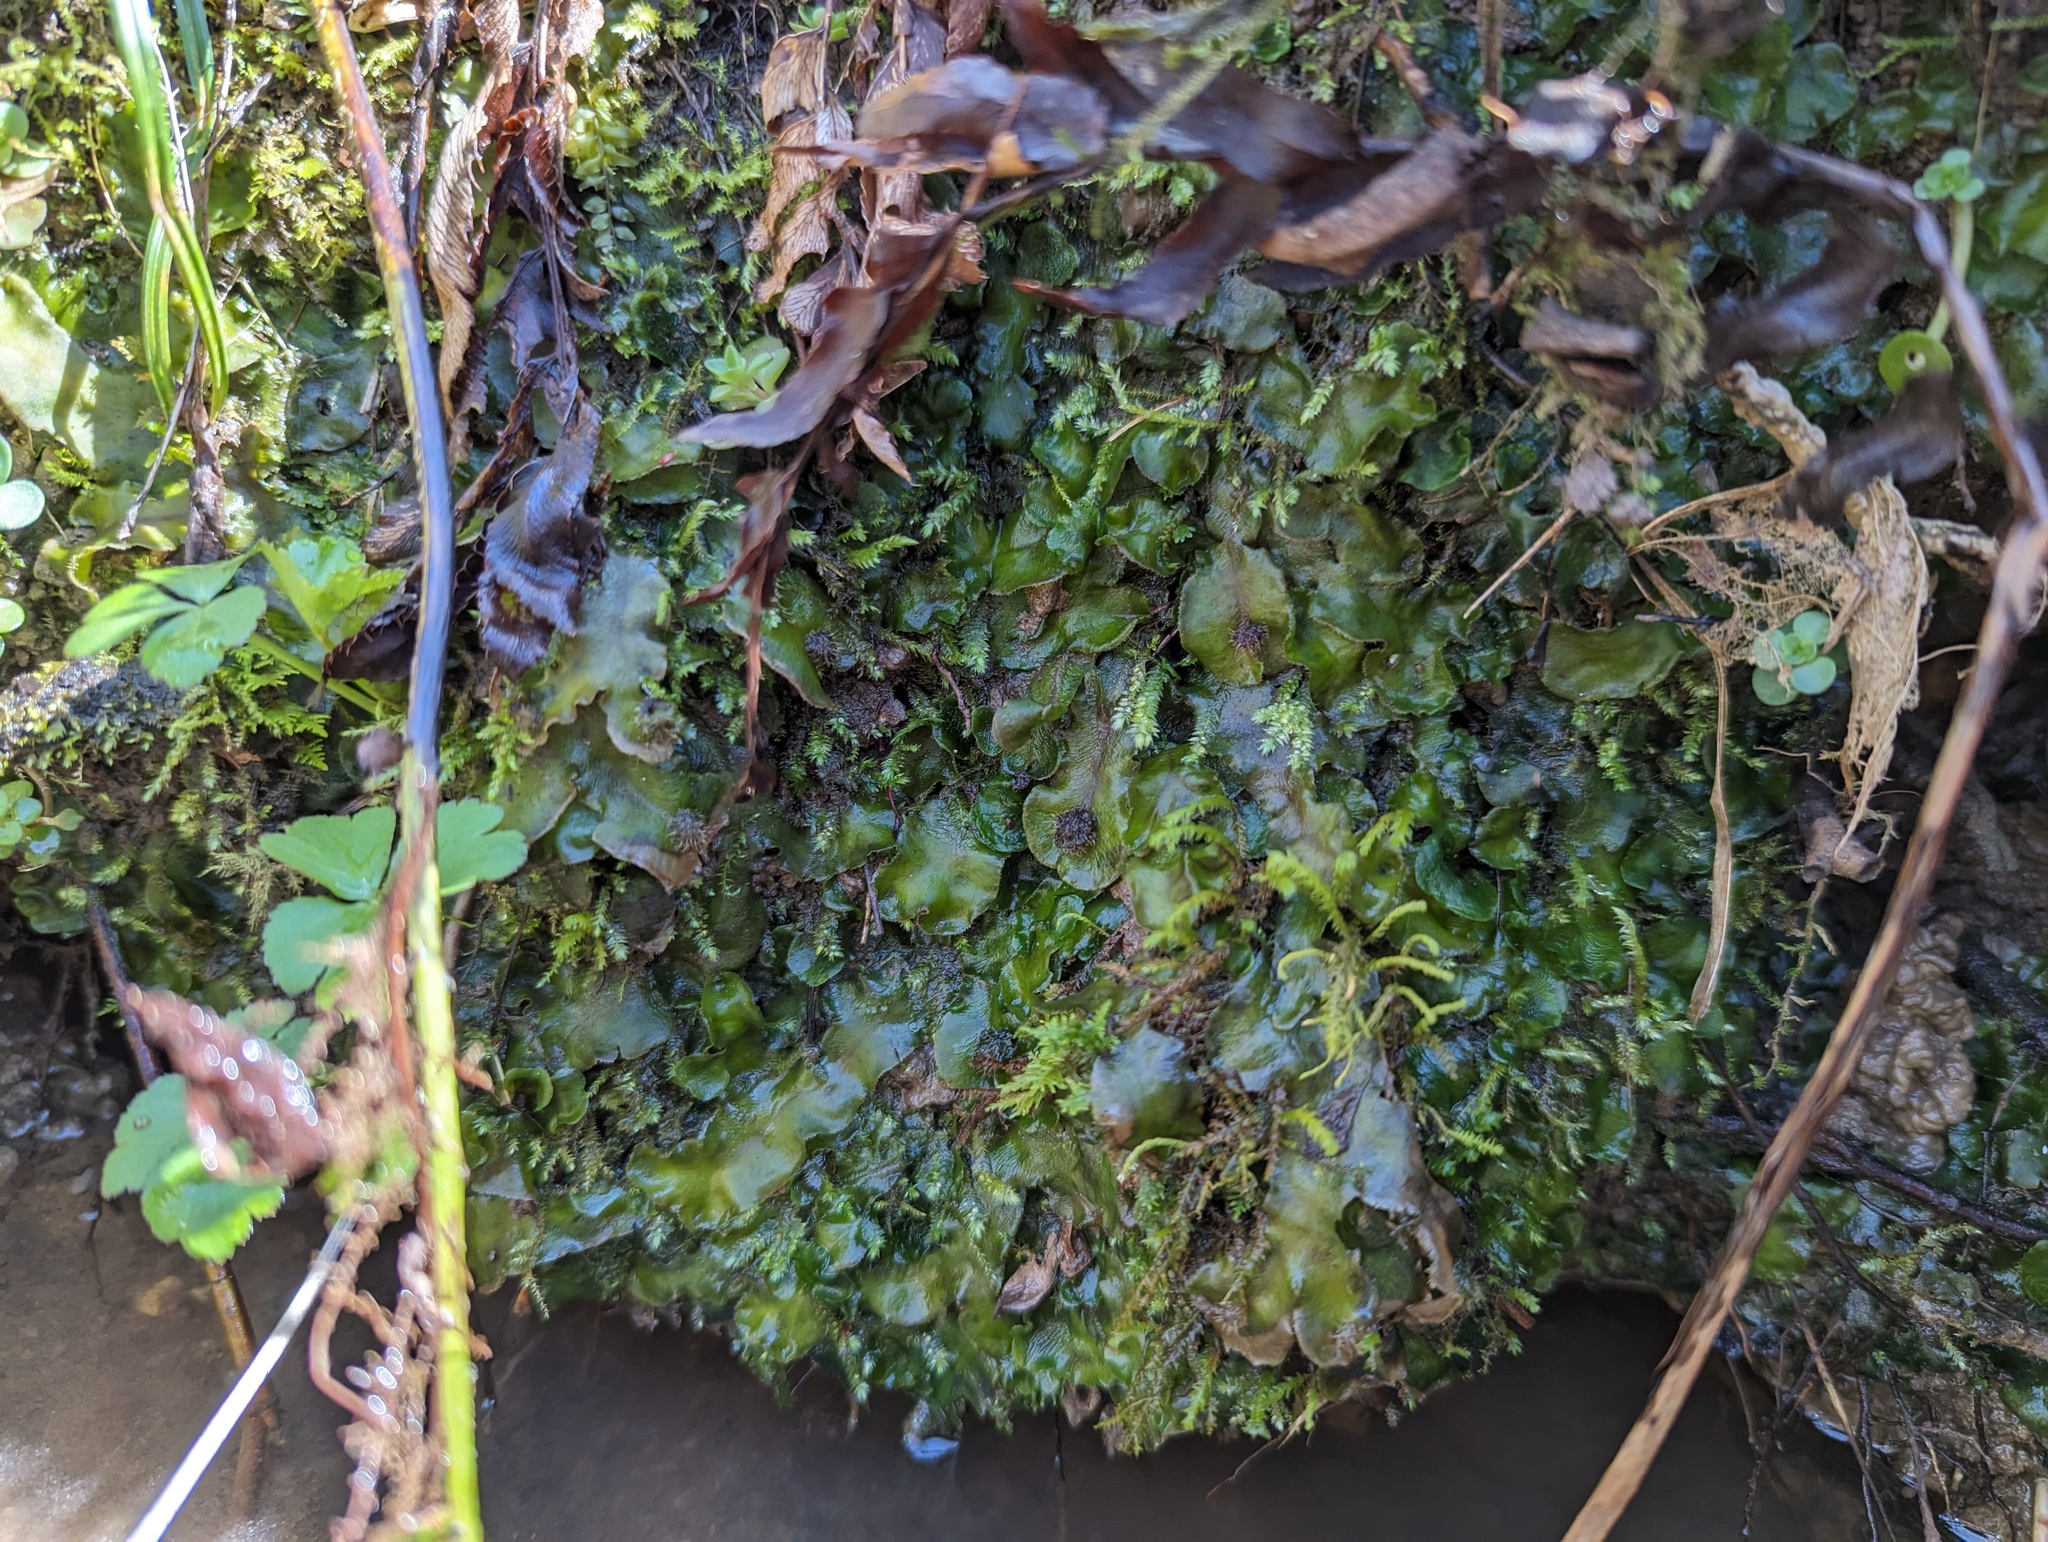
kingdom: Plantae
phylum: Marchantiophyta
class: Marchantiopsida
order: Marchantiales
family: Dumortieraceae
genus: Dumortiera
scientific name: Dumortiera hirsuta
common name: Dumortier's liverwort
